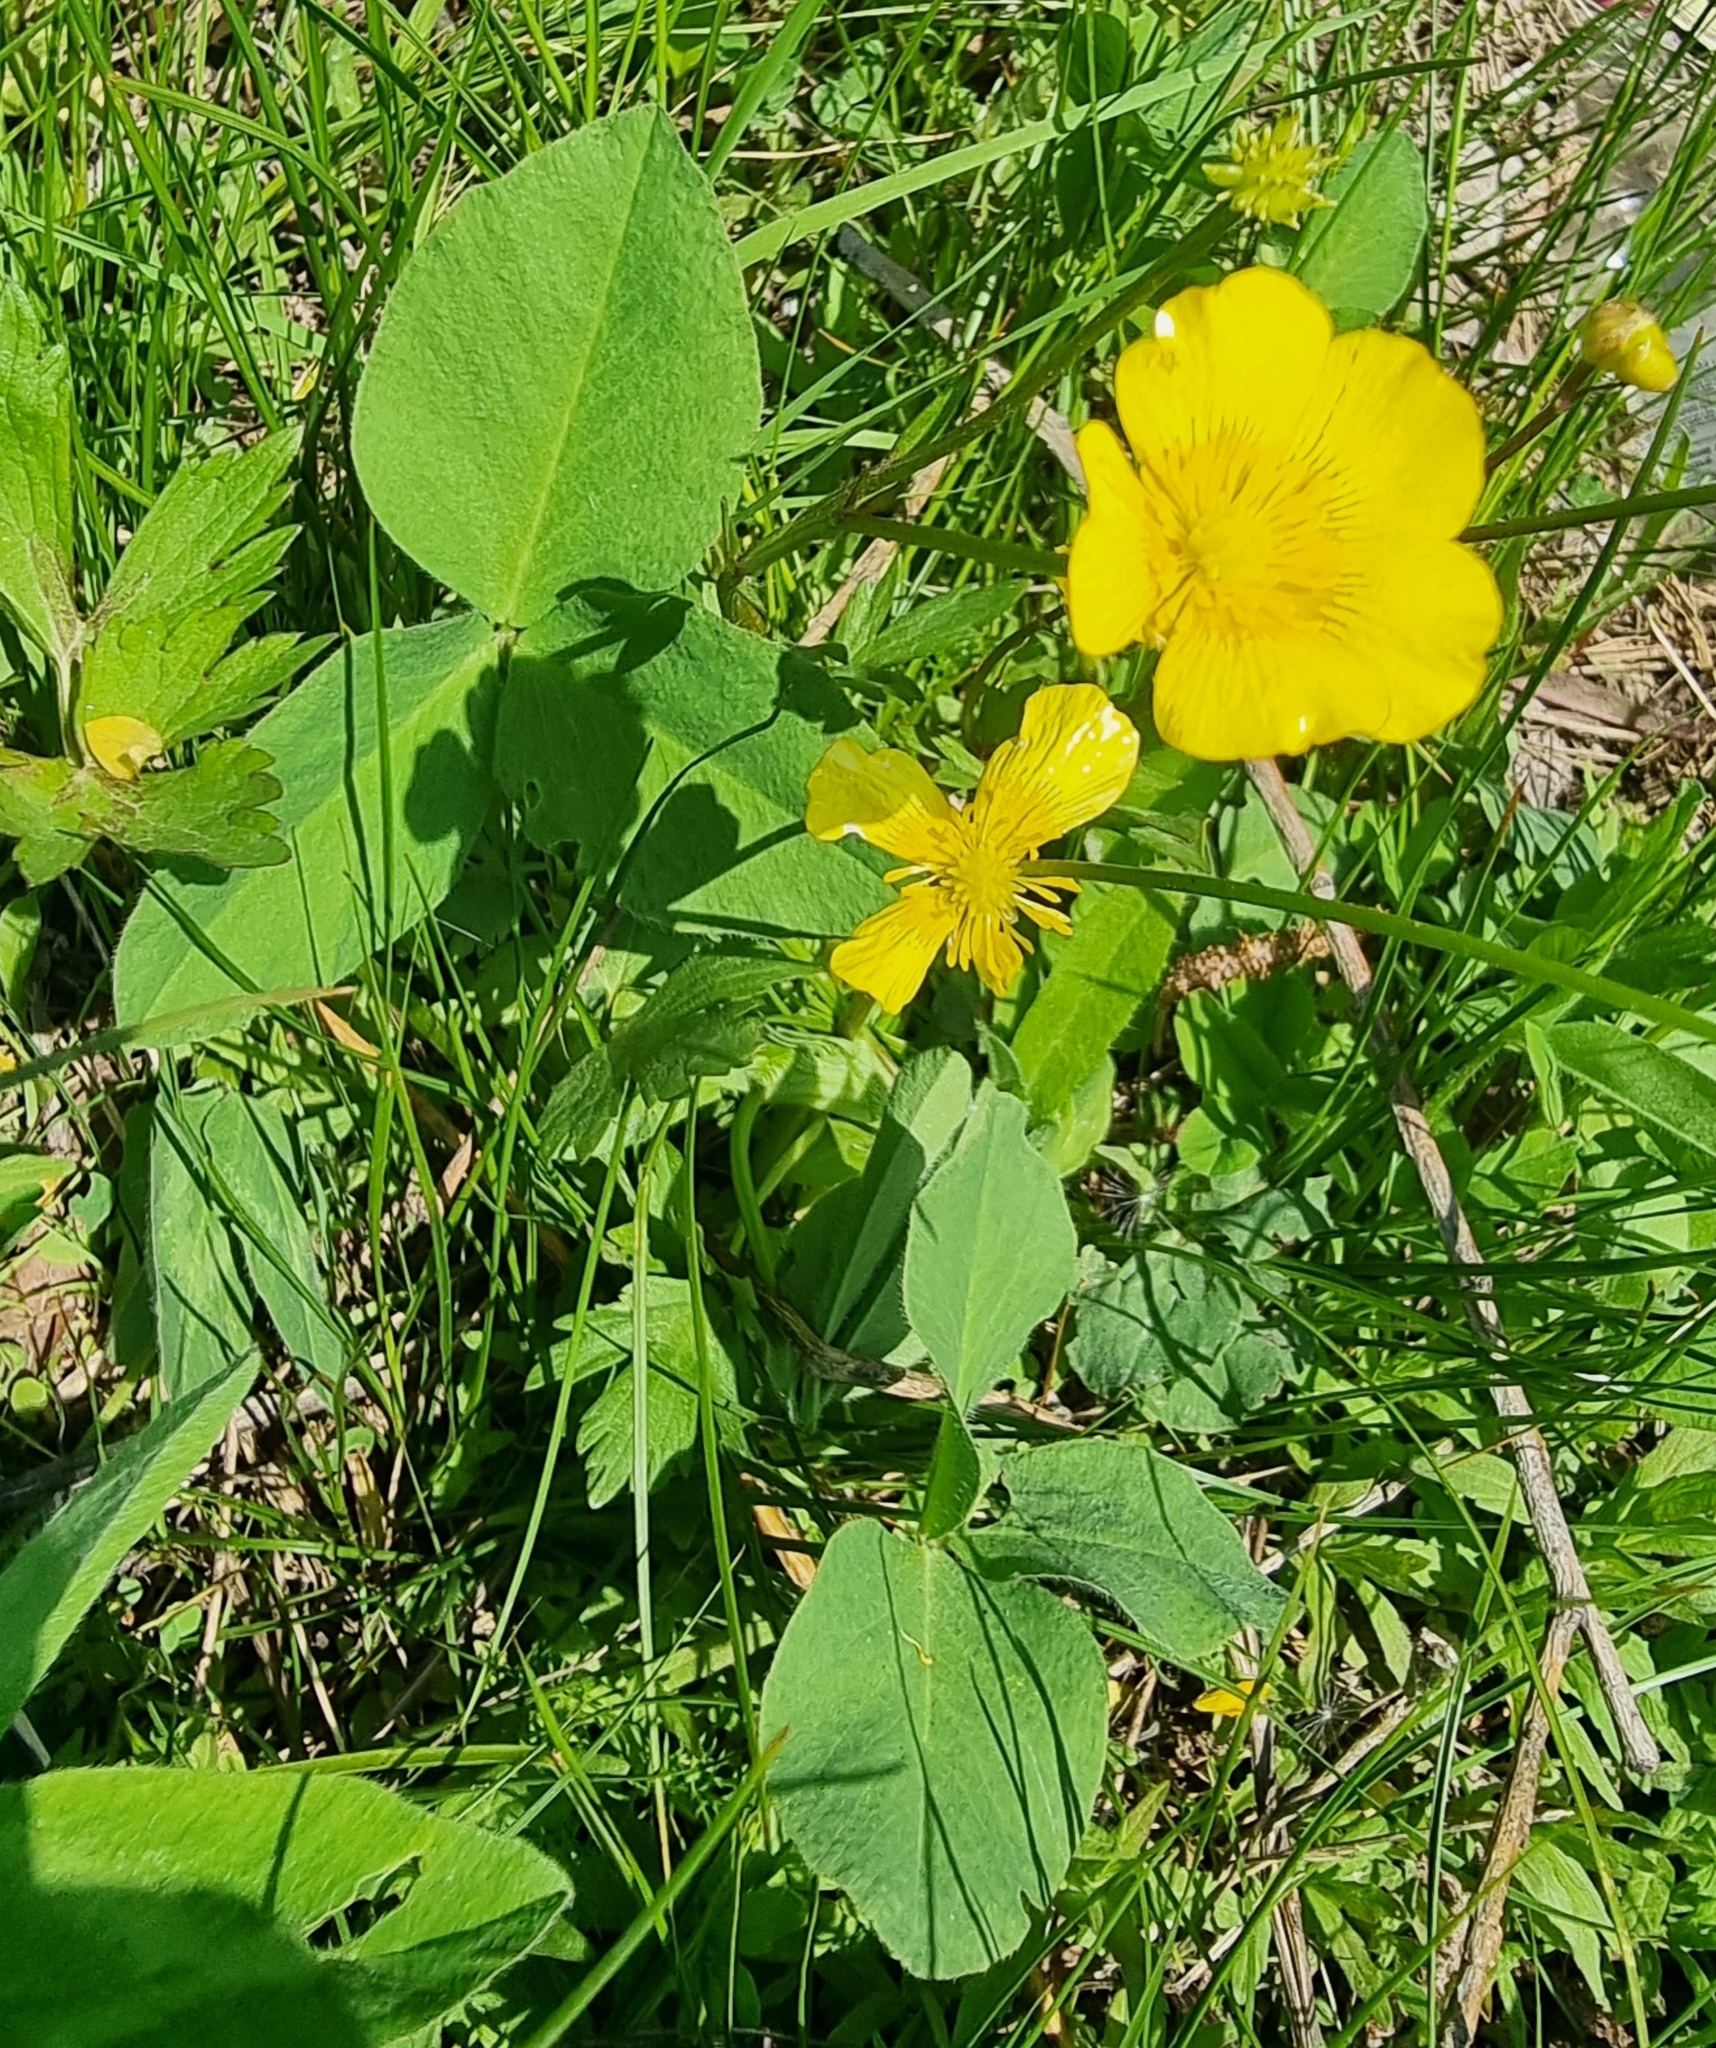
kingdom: Plantae
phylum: Tracheophyta
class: Magnoliopsida
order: Ranunculales
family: Ranunculaceae
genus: Ranunculus
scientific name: Ranunculus repens
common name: Creeping buttercup
